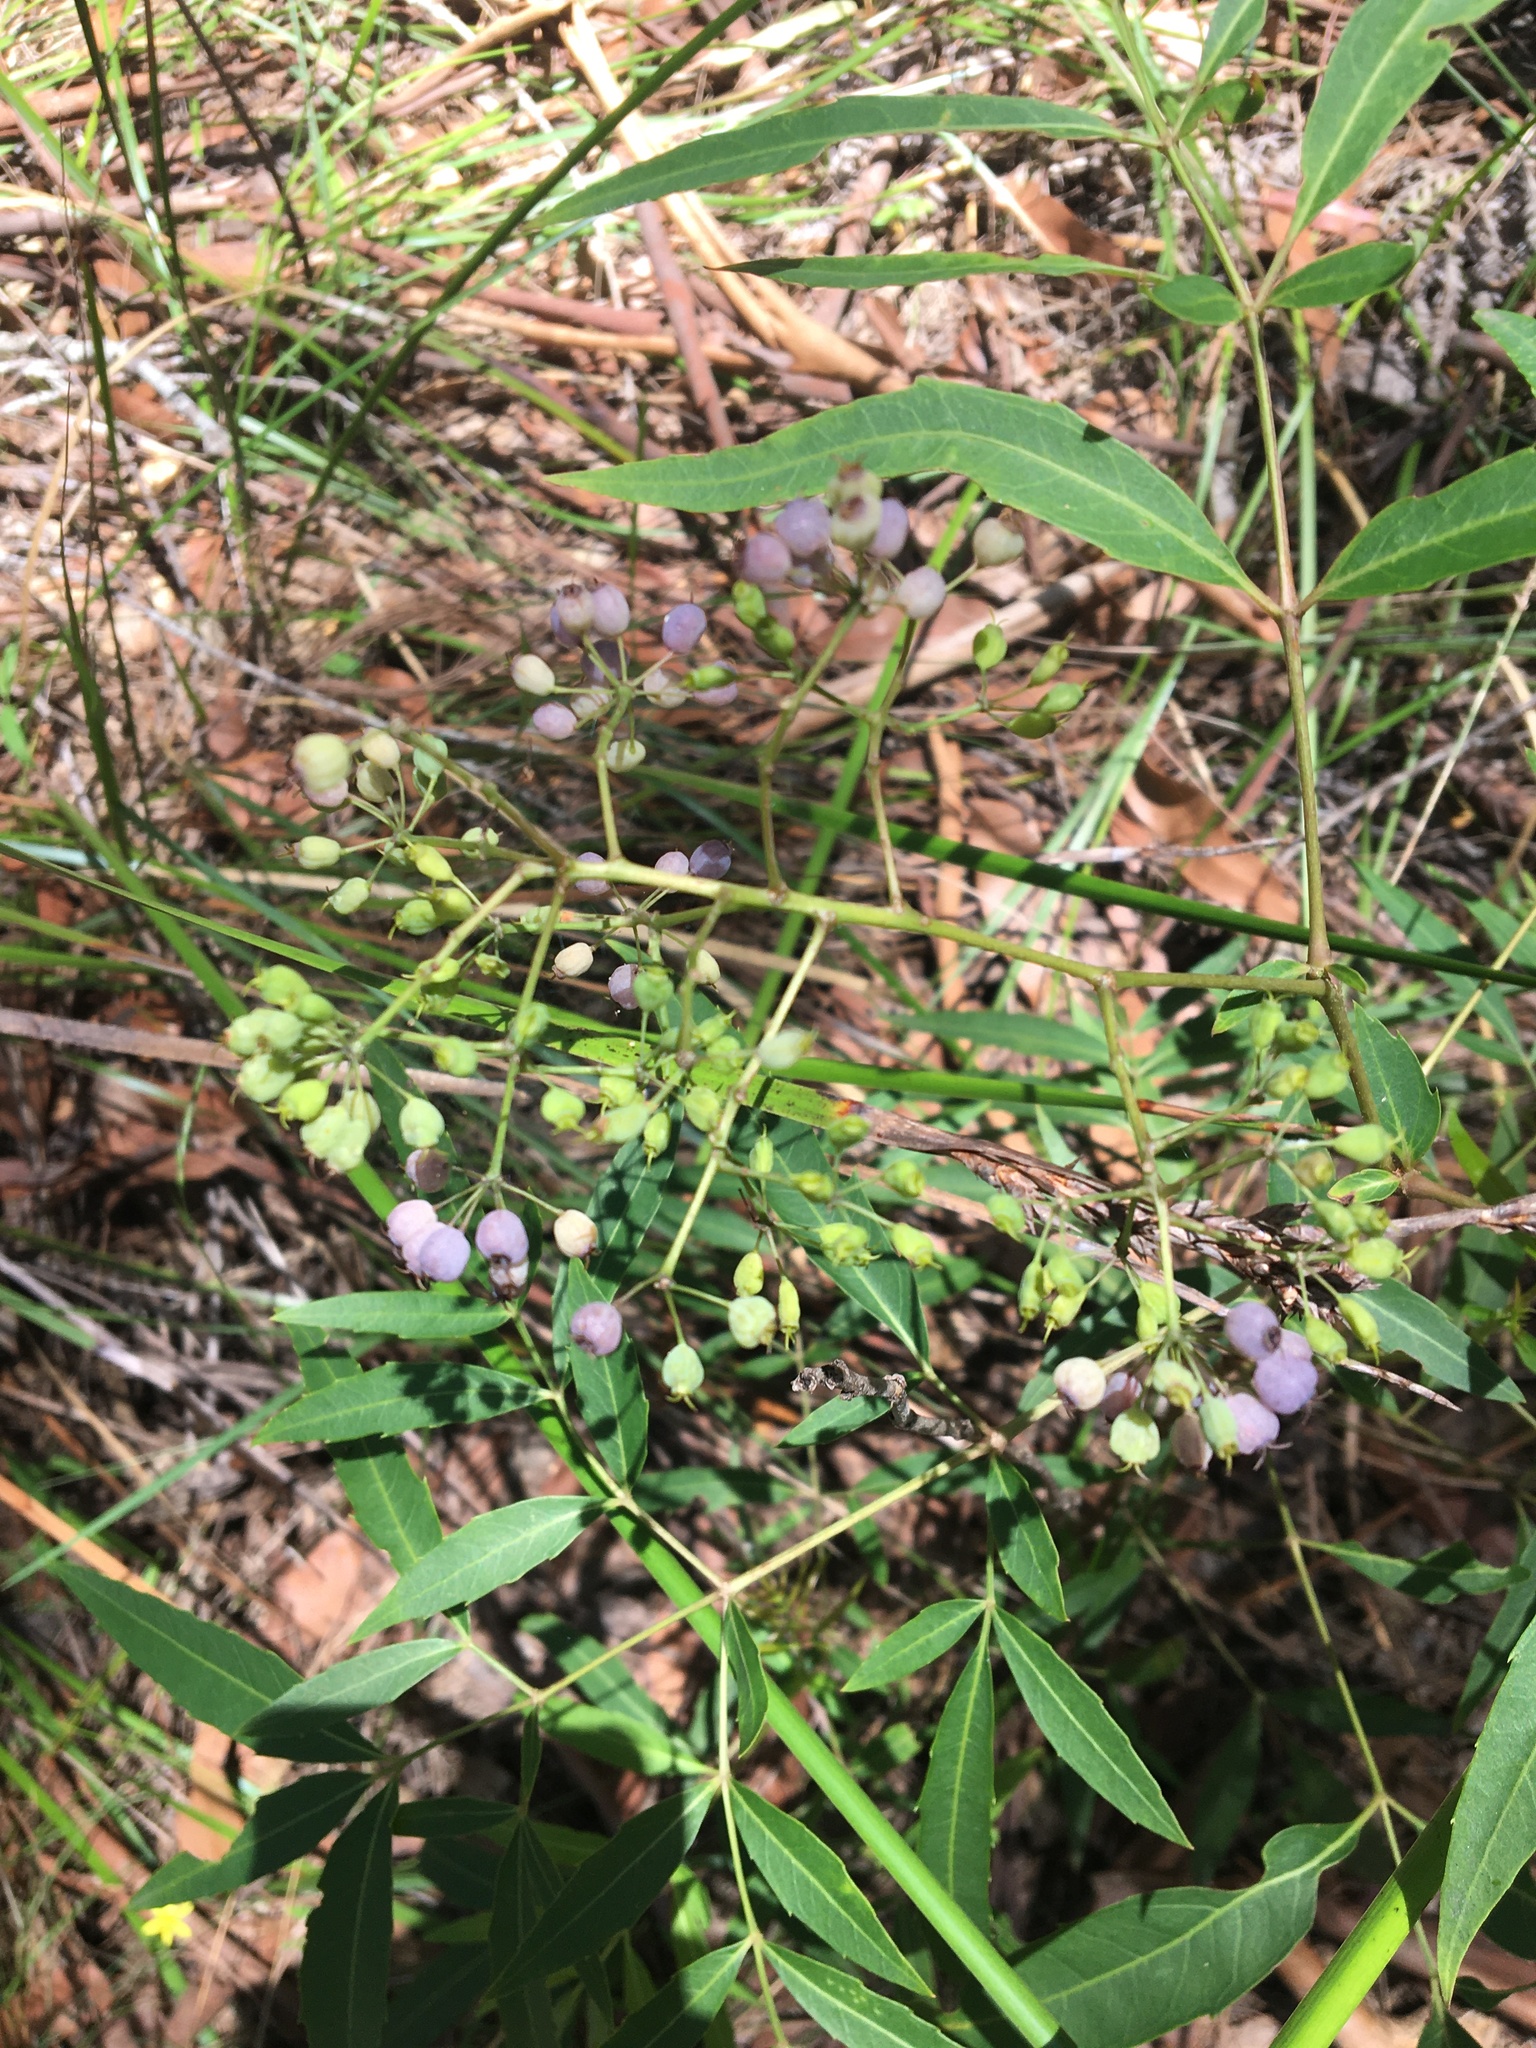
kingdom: Plantae
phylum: Tracheophyta
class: Magnoliopsida
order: Apiales
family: Araliaceae
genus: Polyscias
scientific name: Polyscias sambucifolia
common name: Elderberry-ash
